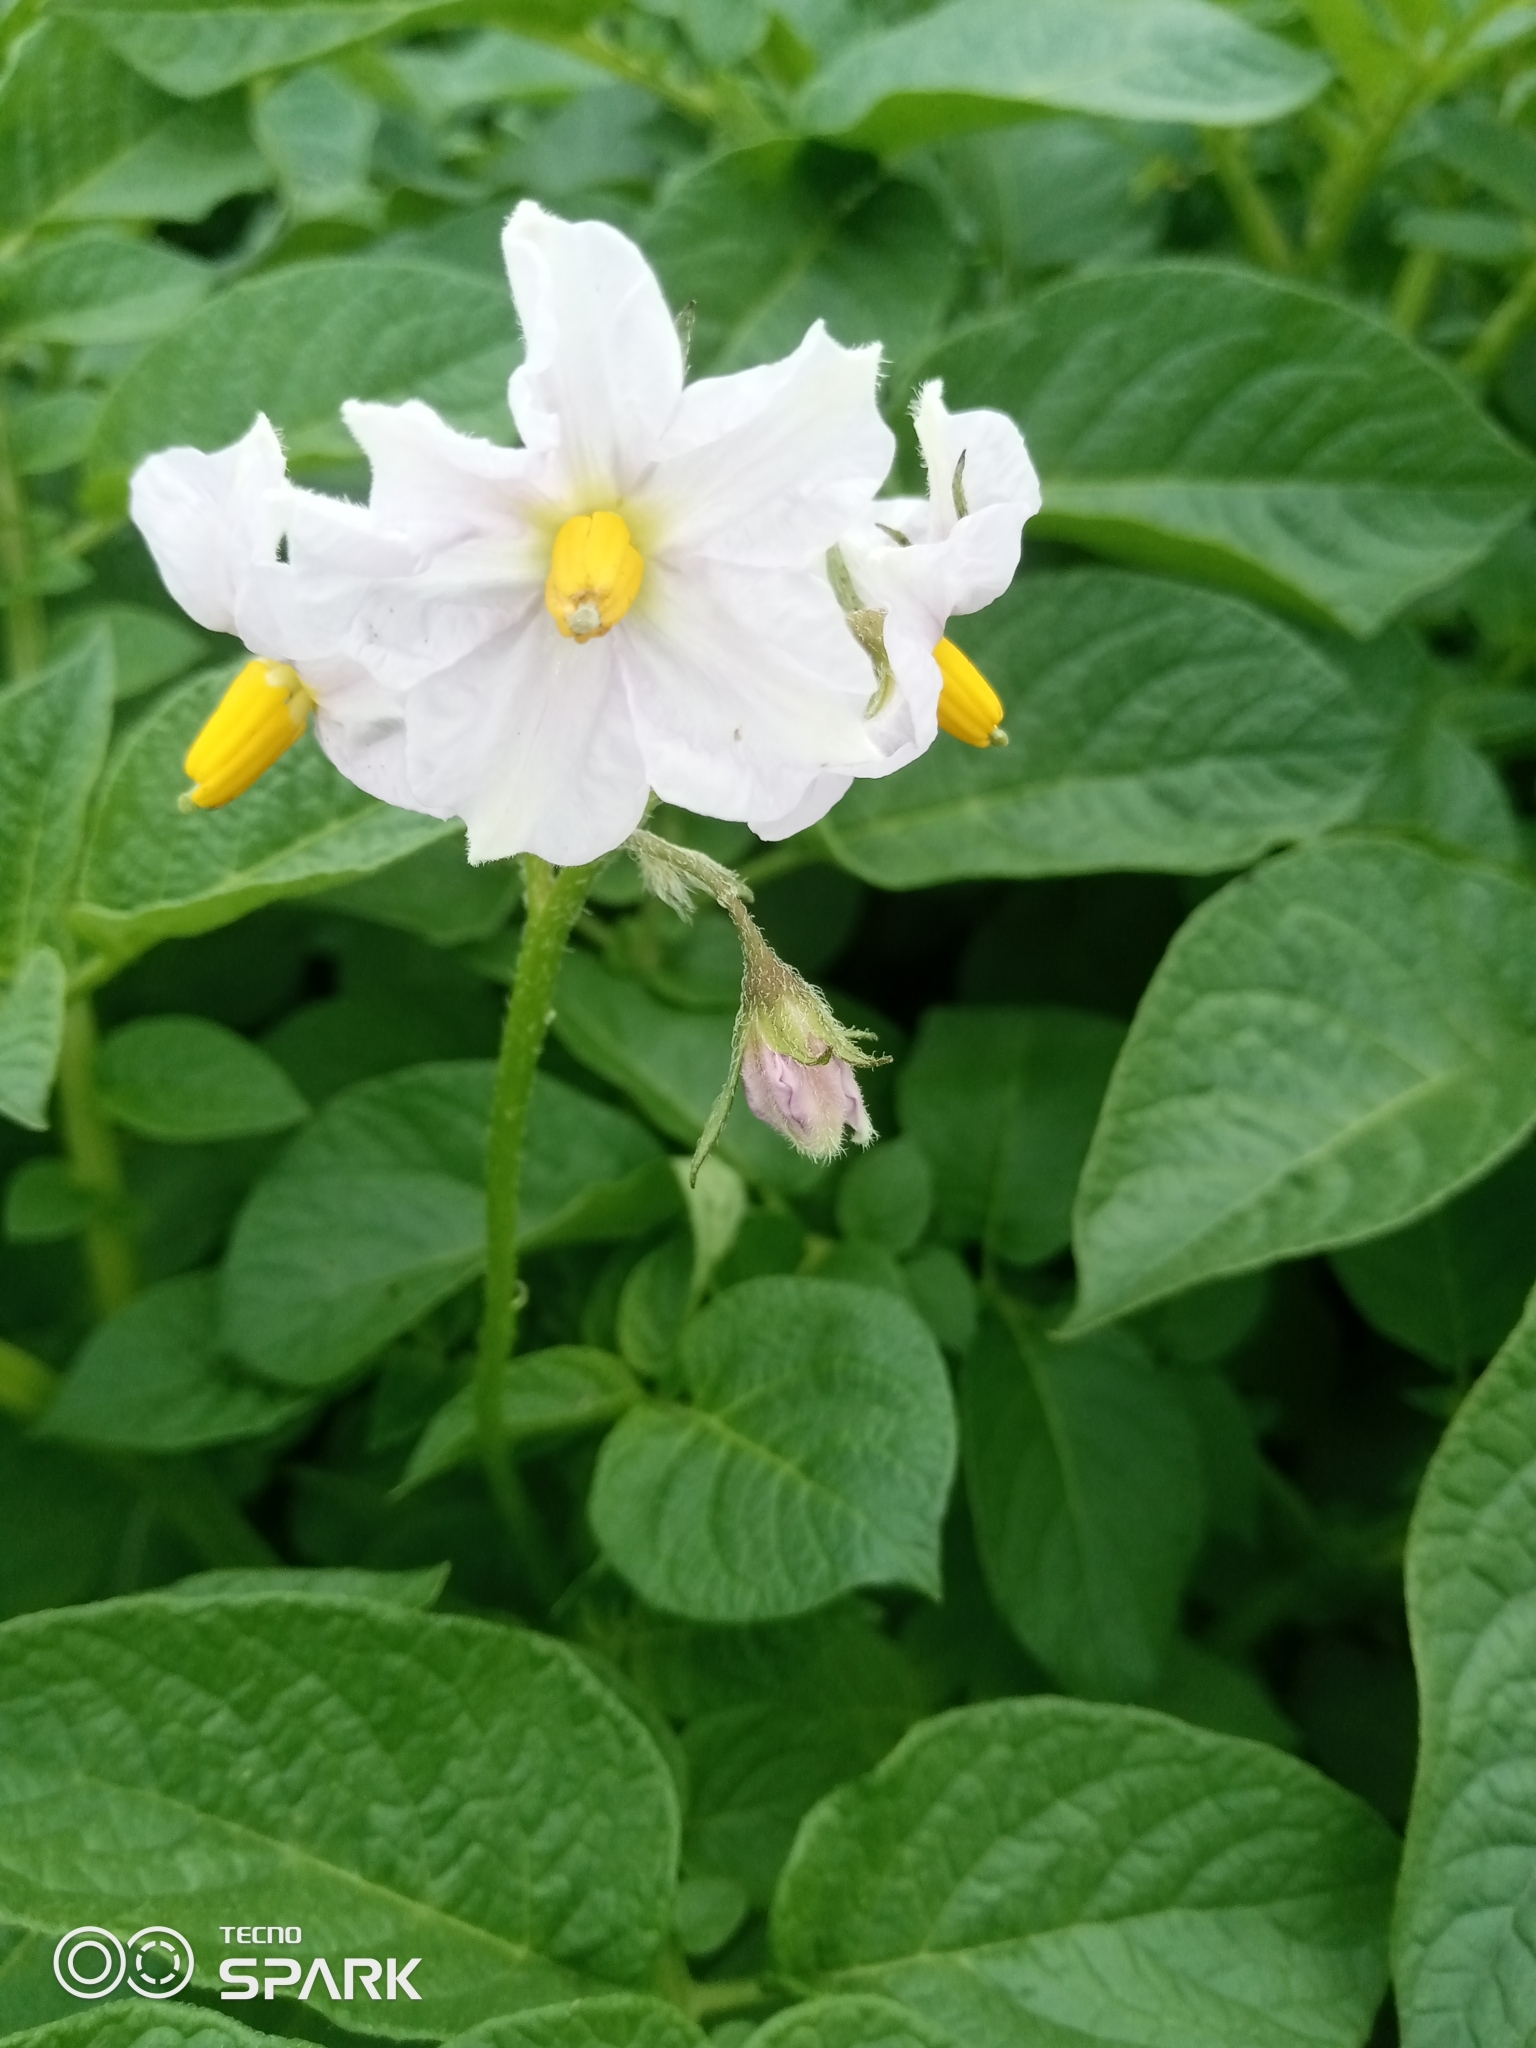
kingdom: Plantae
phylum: Tracheophyta
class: Magnoliopsida
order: Solanales
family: Solanaceae
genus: Solanum
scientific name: Solanum tuberosum
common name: Potato
